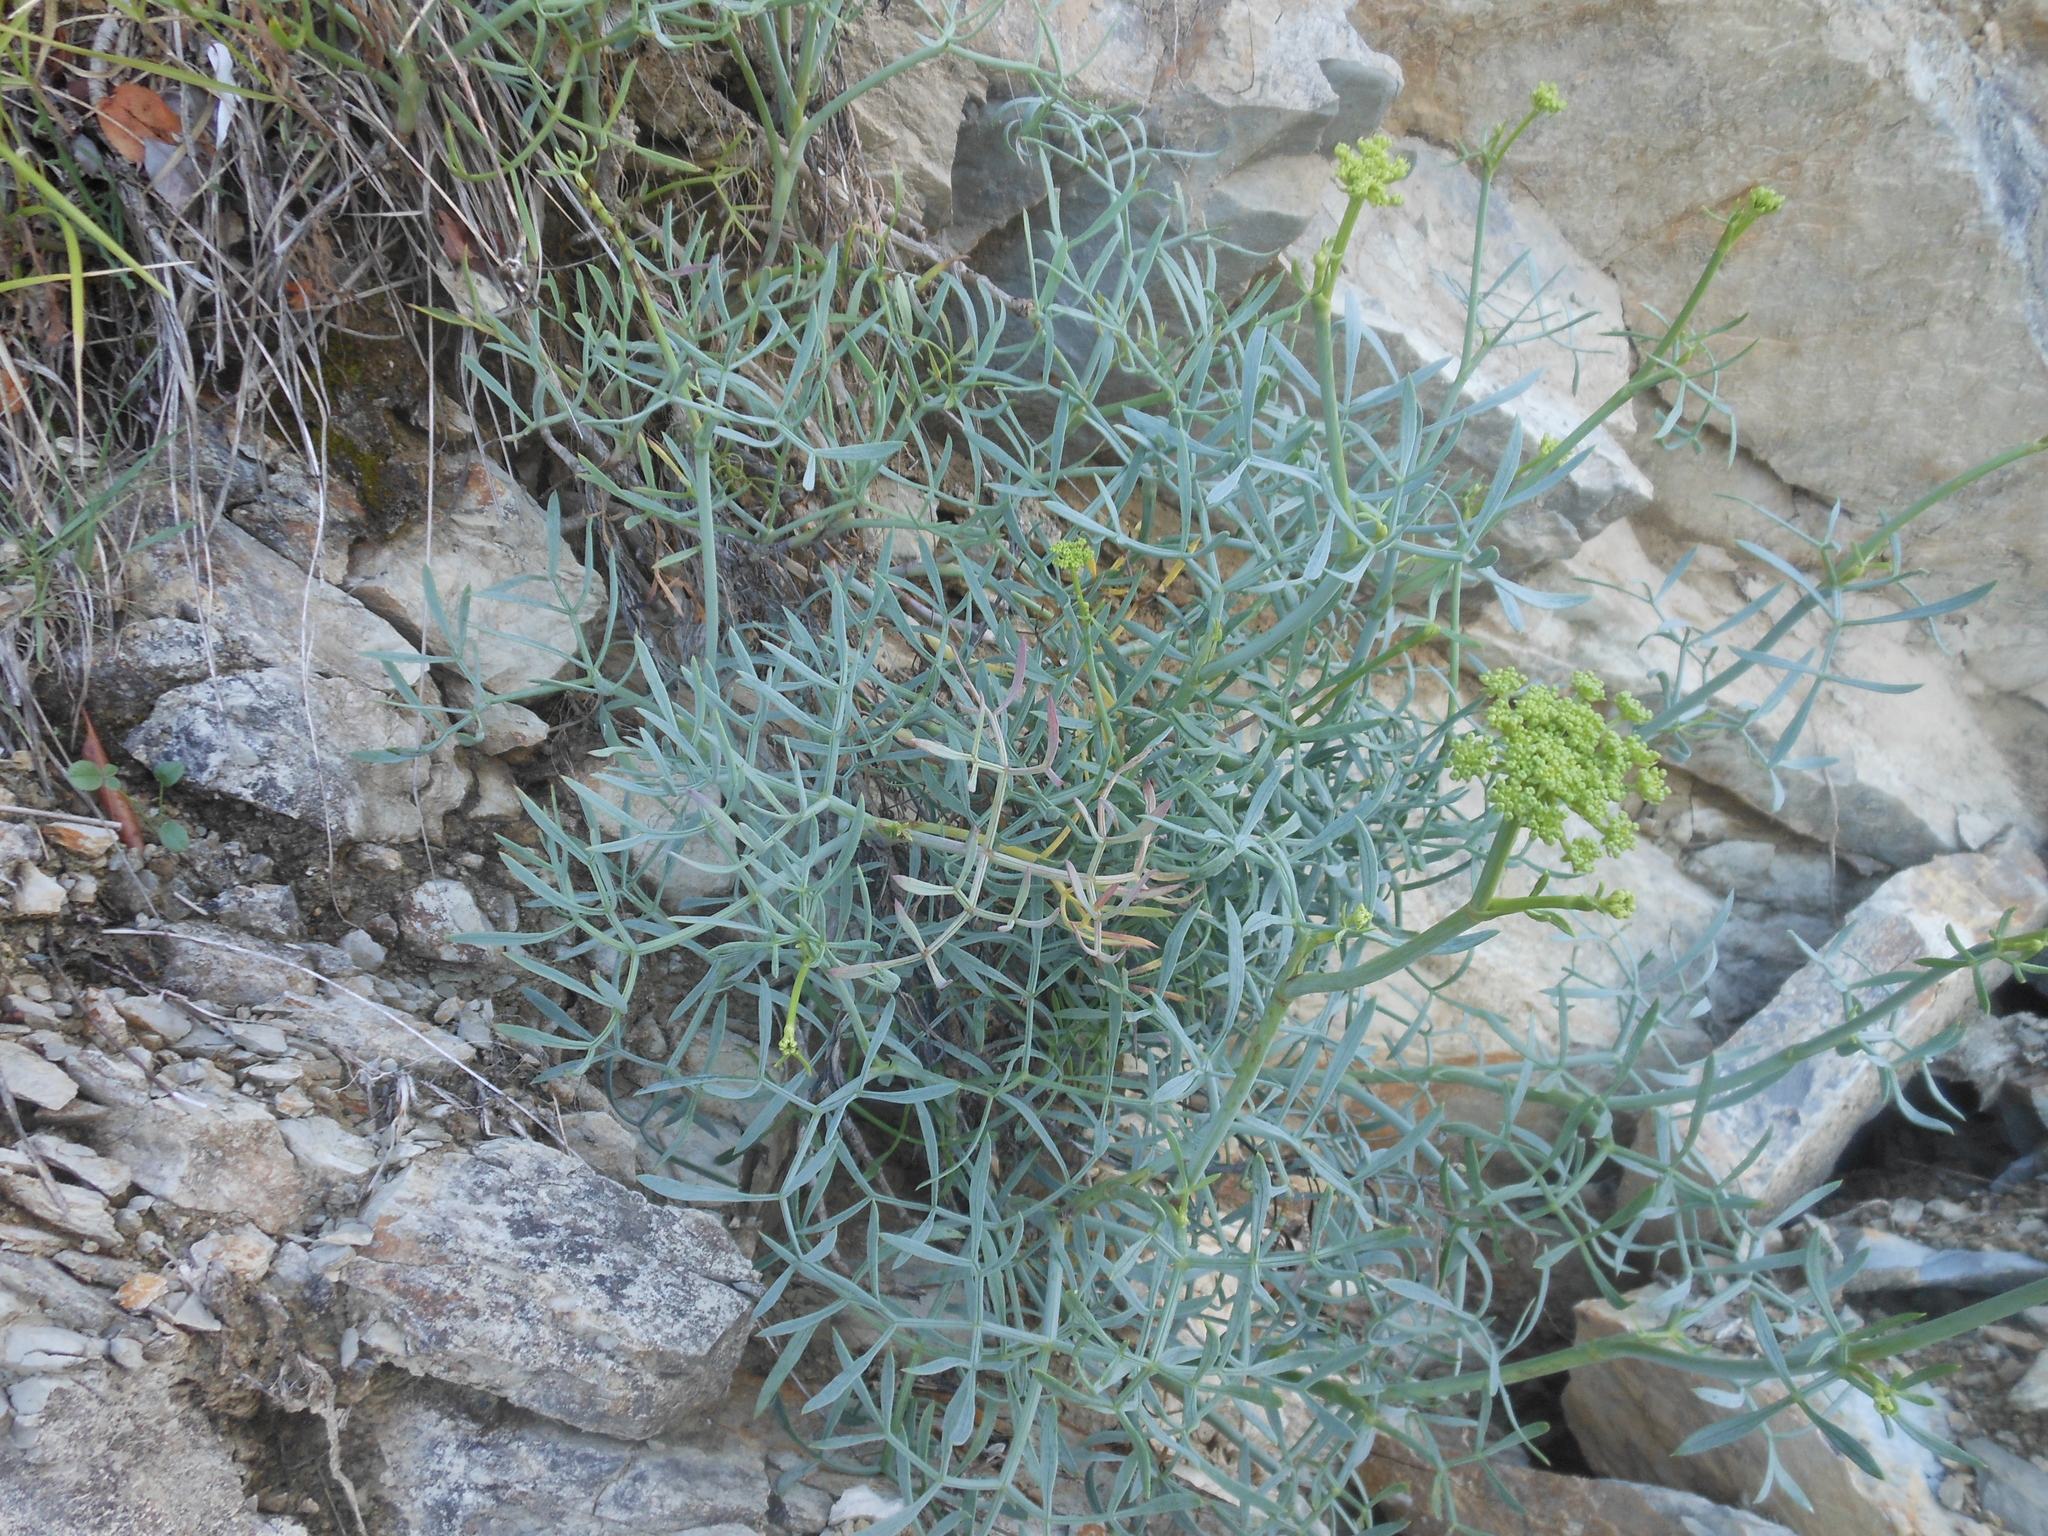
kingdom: Plantae
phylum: Tracheophyta
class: Magnoliopsida
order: Apiales
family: Apiaceae
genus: Crithmum
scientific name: Crithmum maritimum
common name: Rock samphire
